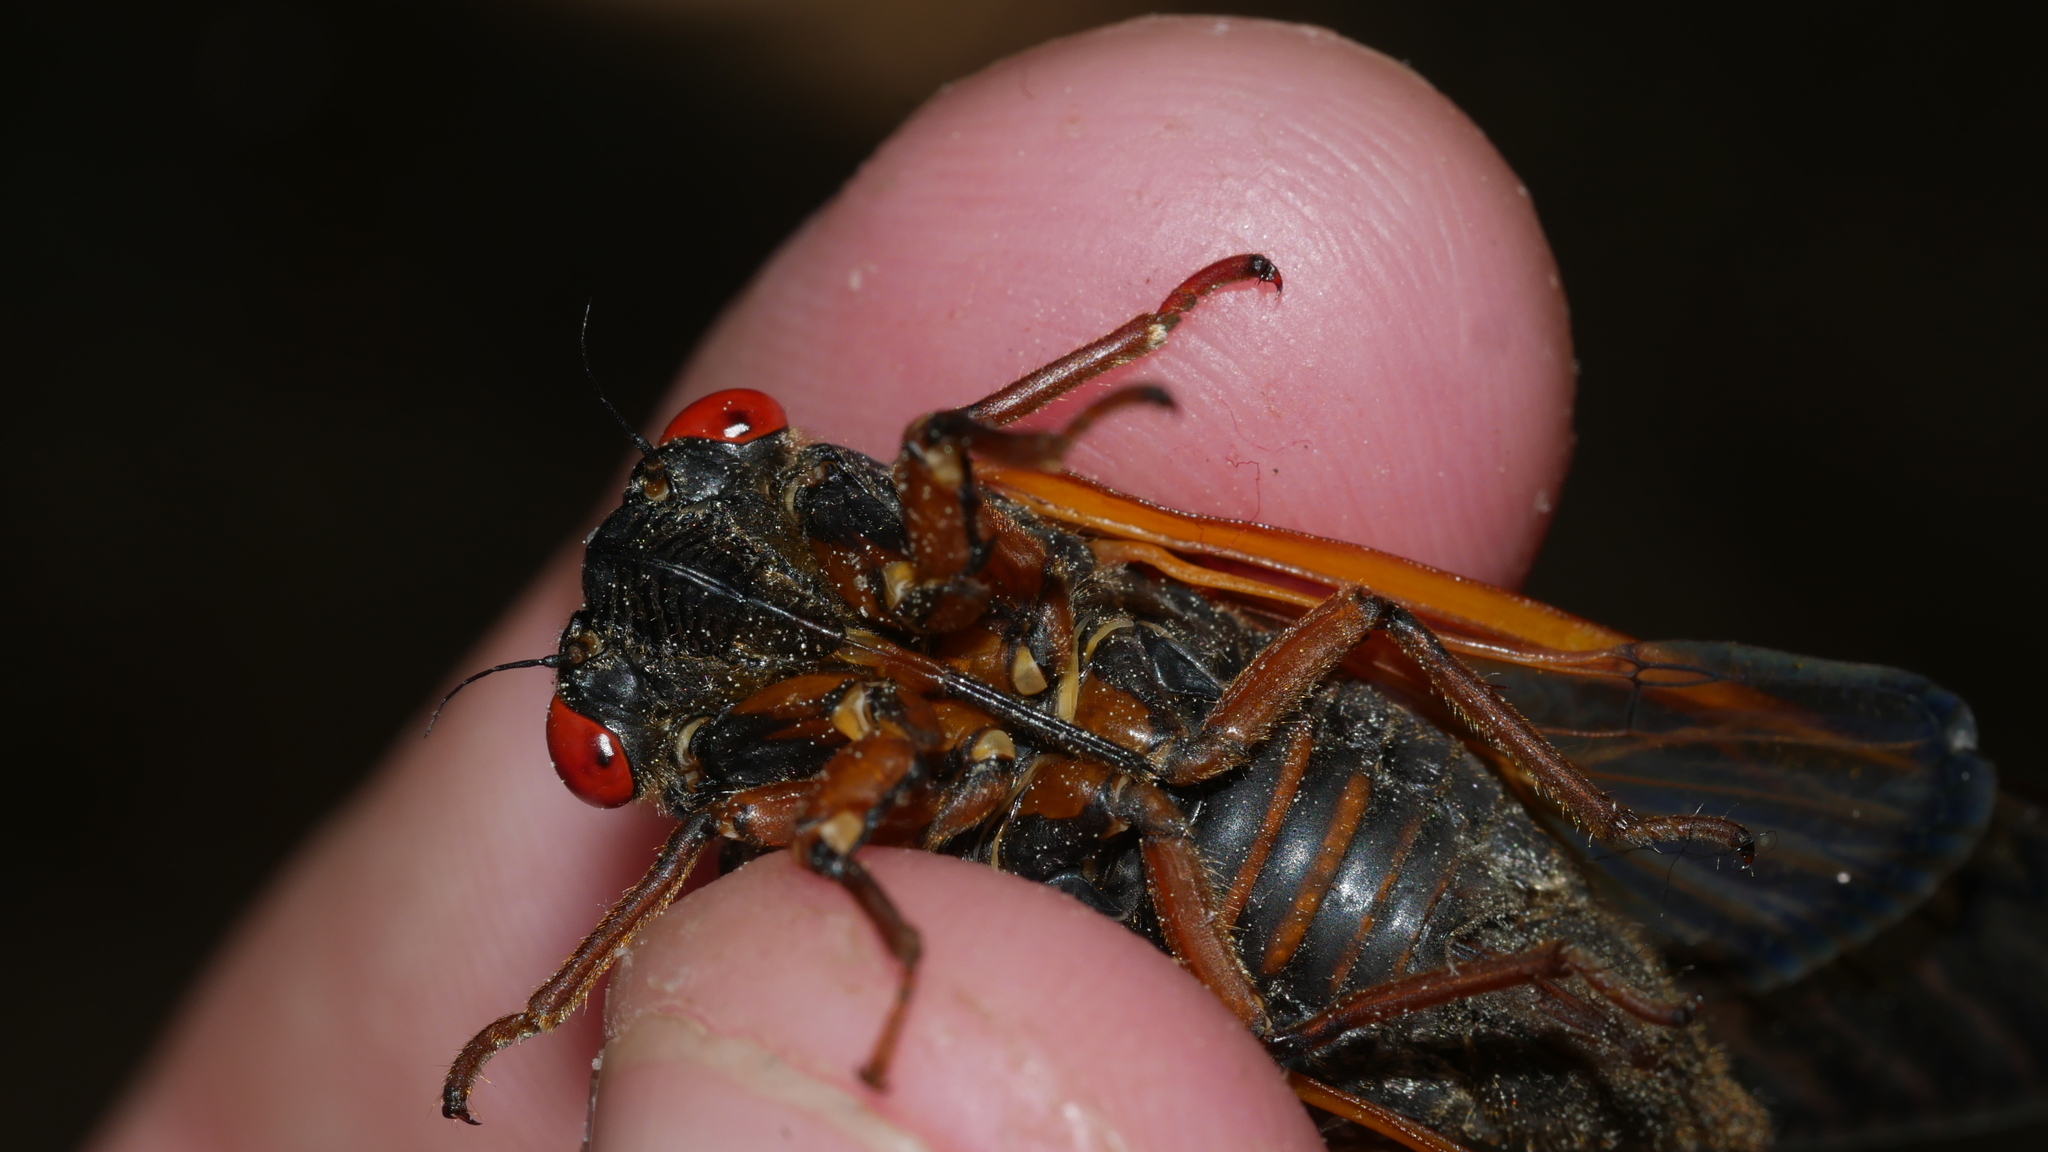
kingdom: Animalia
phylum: Arthropoda
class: Insecta
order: Hemiptera
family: Cicadidae
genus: Magicicada
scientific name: Magicicada septendecula
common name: Decula periodical cicada
